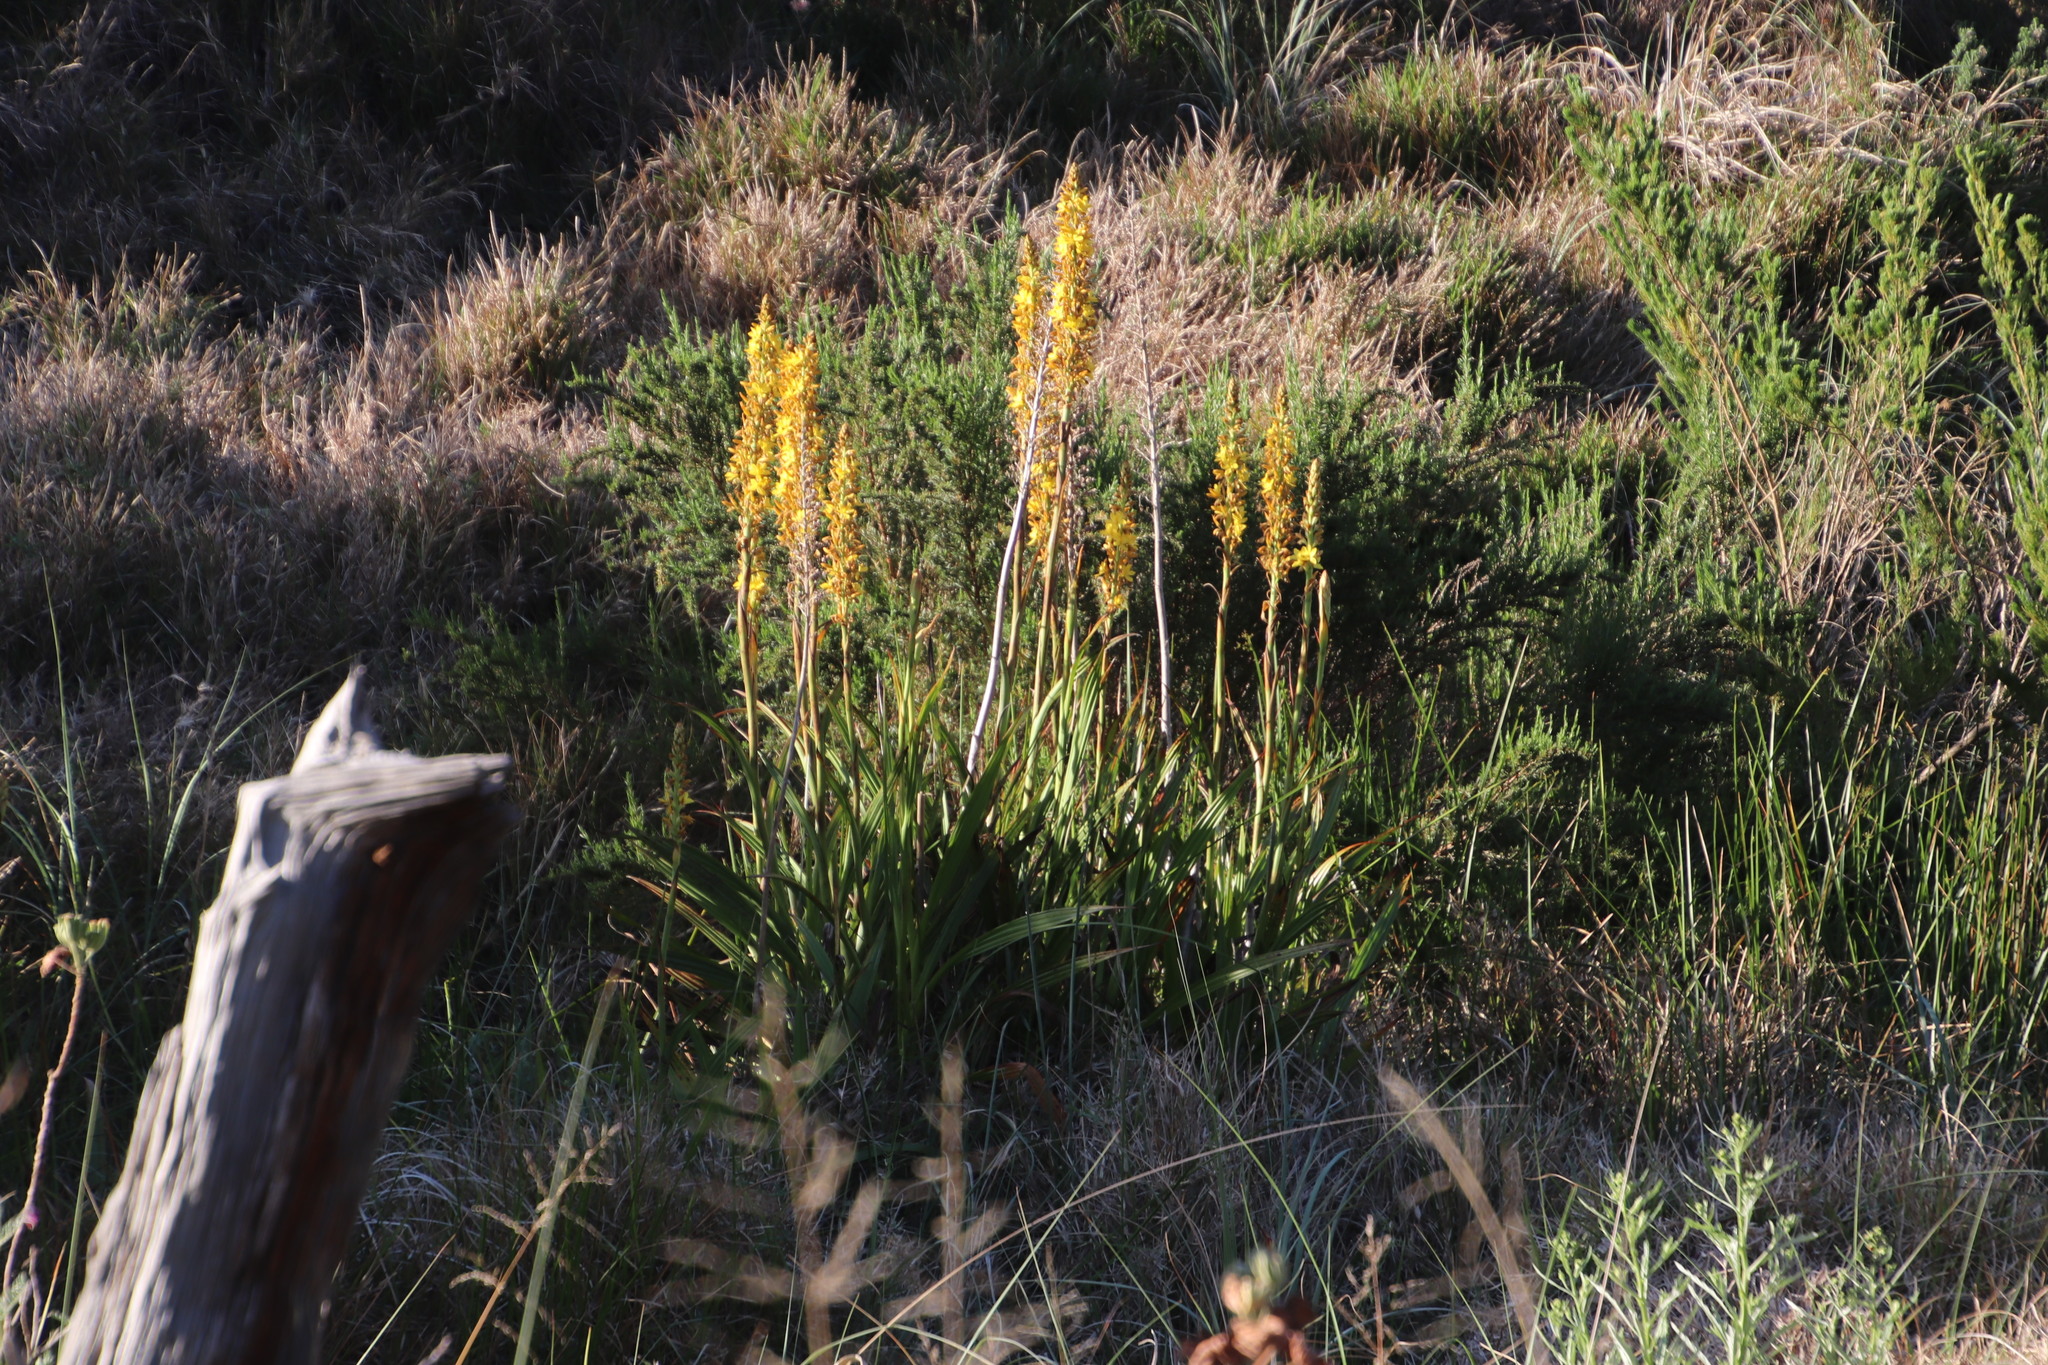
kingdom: Plantae
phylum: Tracheophyta
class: Liliopsida
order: Commelinales
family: Haemodoraceae
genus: Wachendorfia
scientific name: Wachendorfia thyrsiflora
